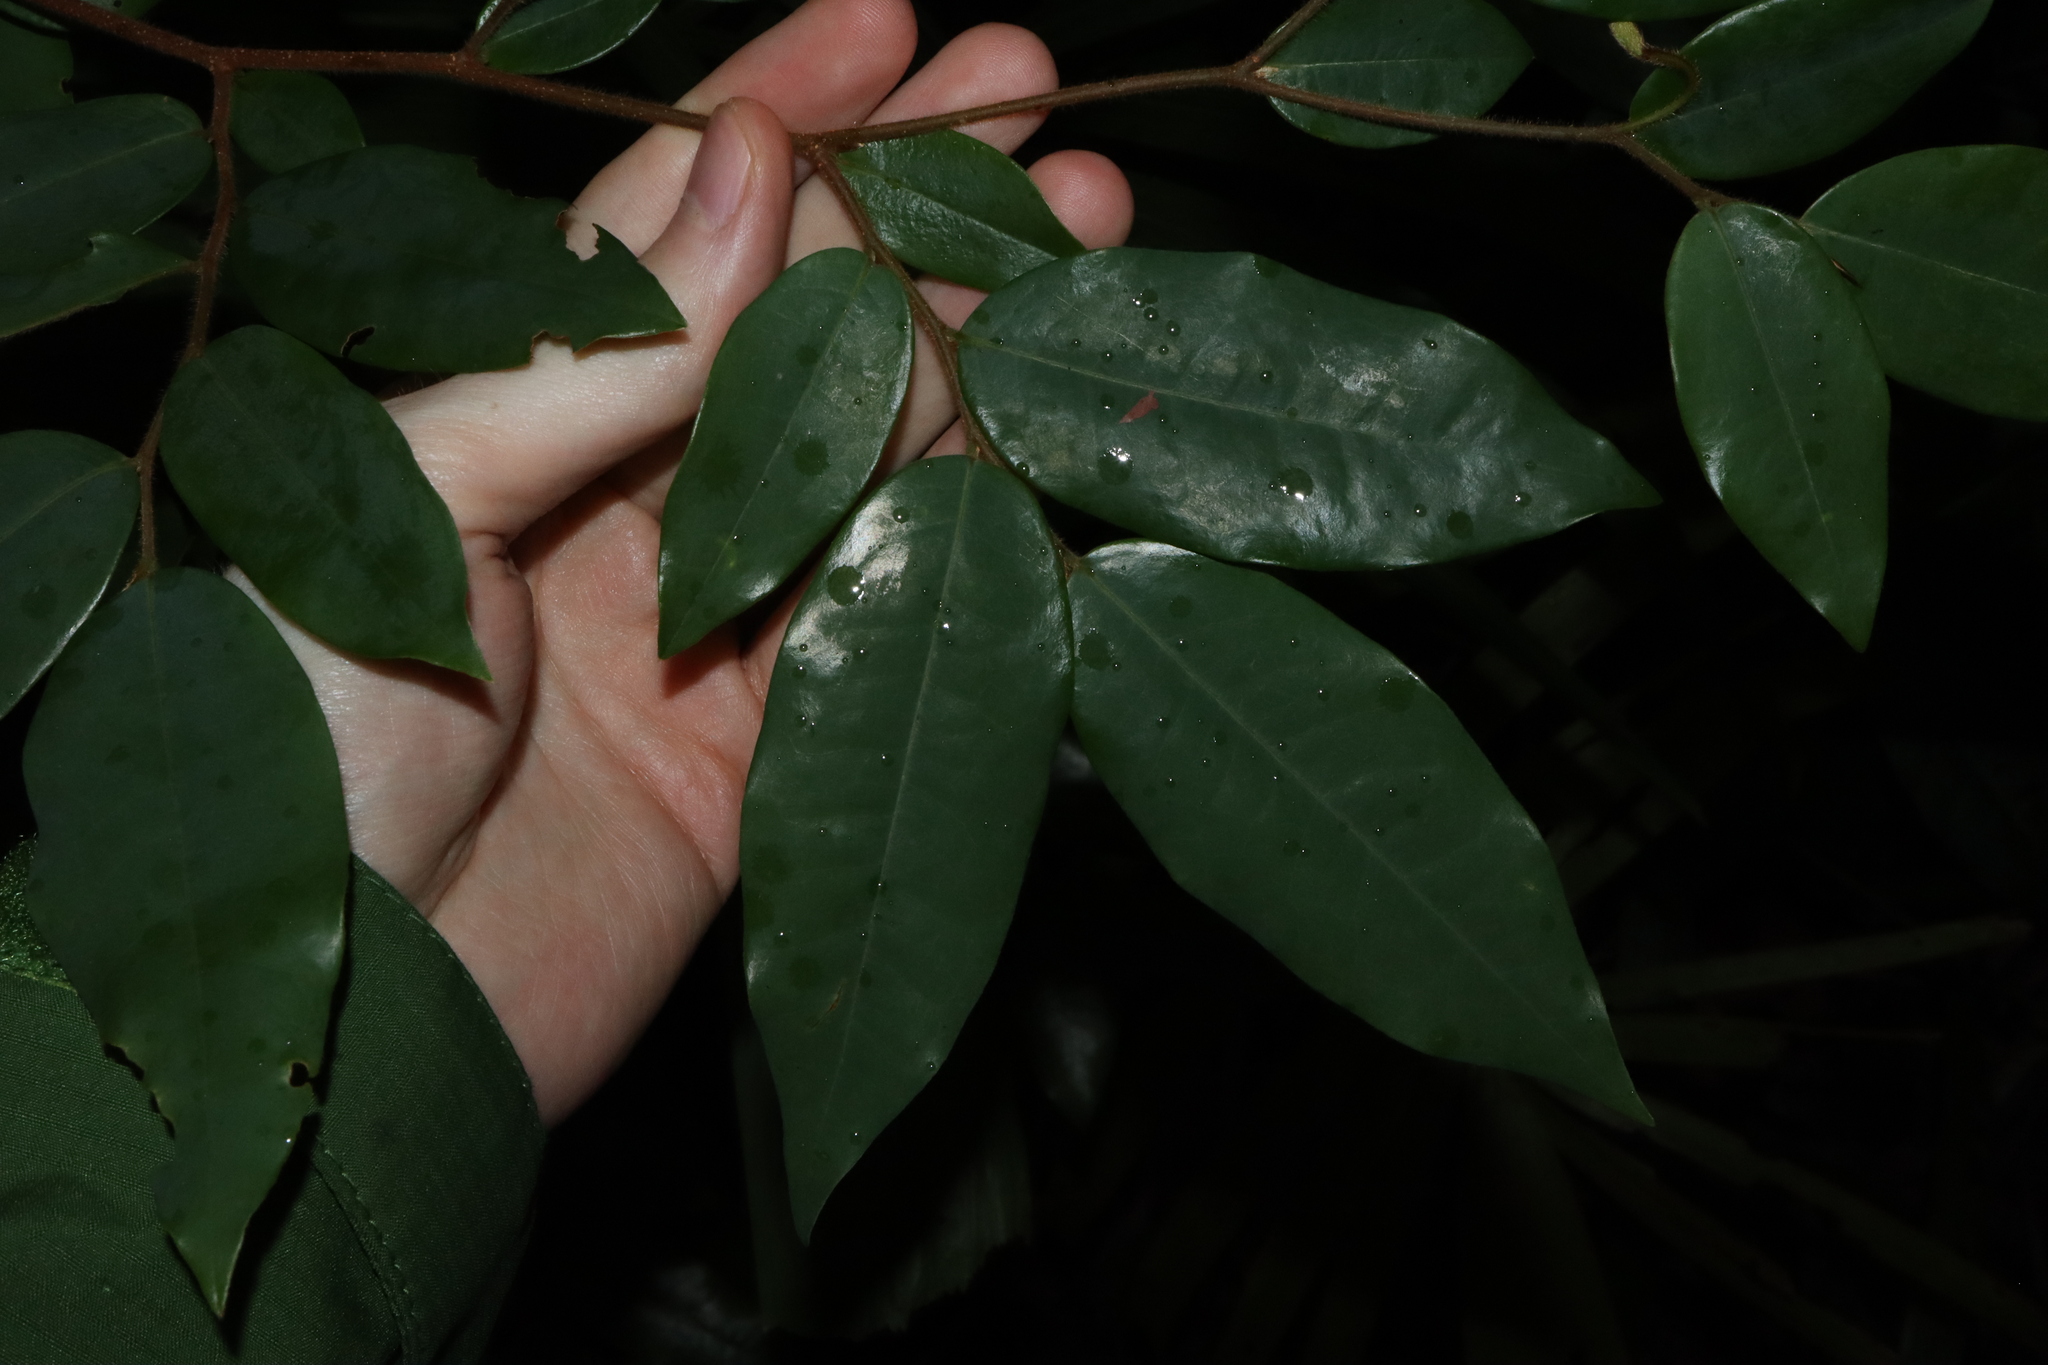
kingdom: Plantae
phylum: Tracheophyta
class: Magnoliopsida
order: Magnoliales
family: Annonaceae
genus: Xylopia
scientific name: Xylopia maccreae
